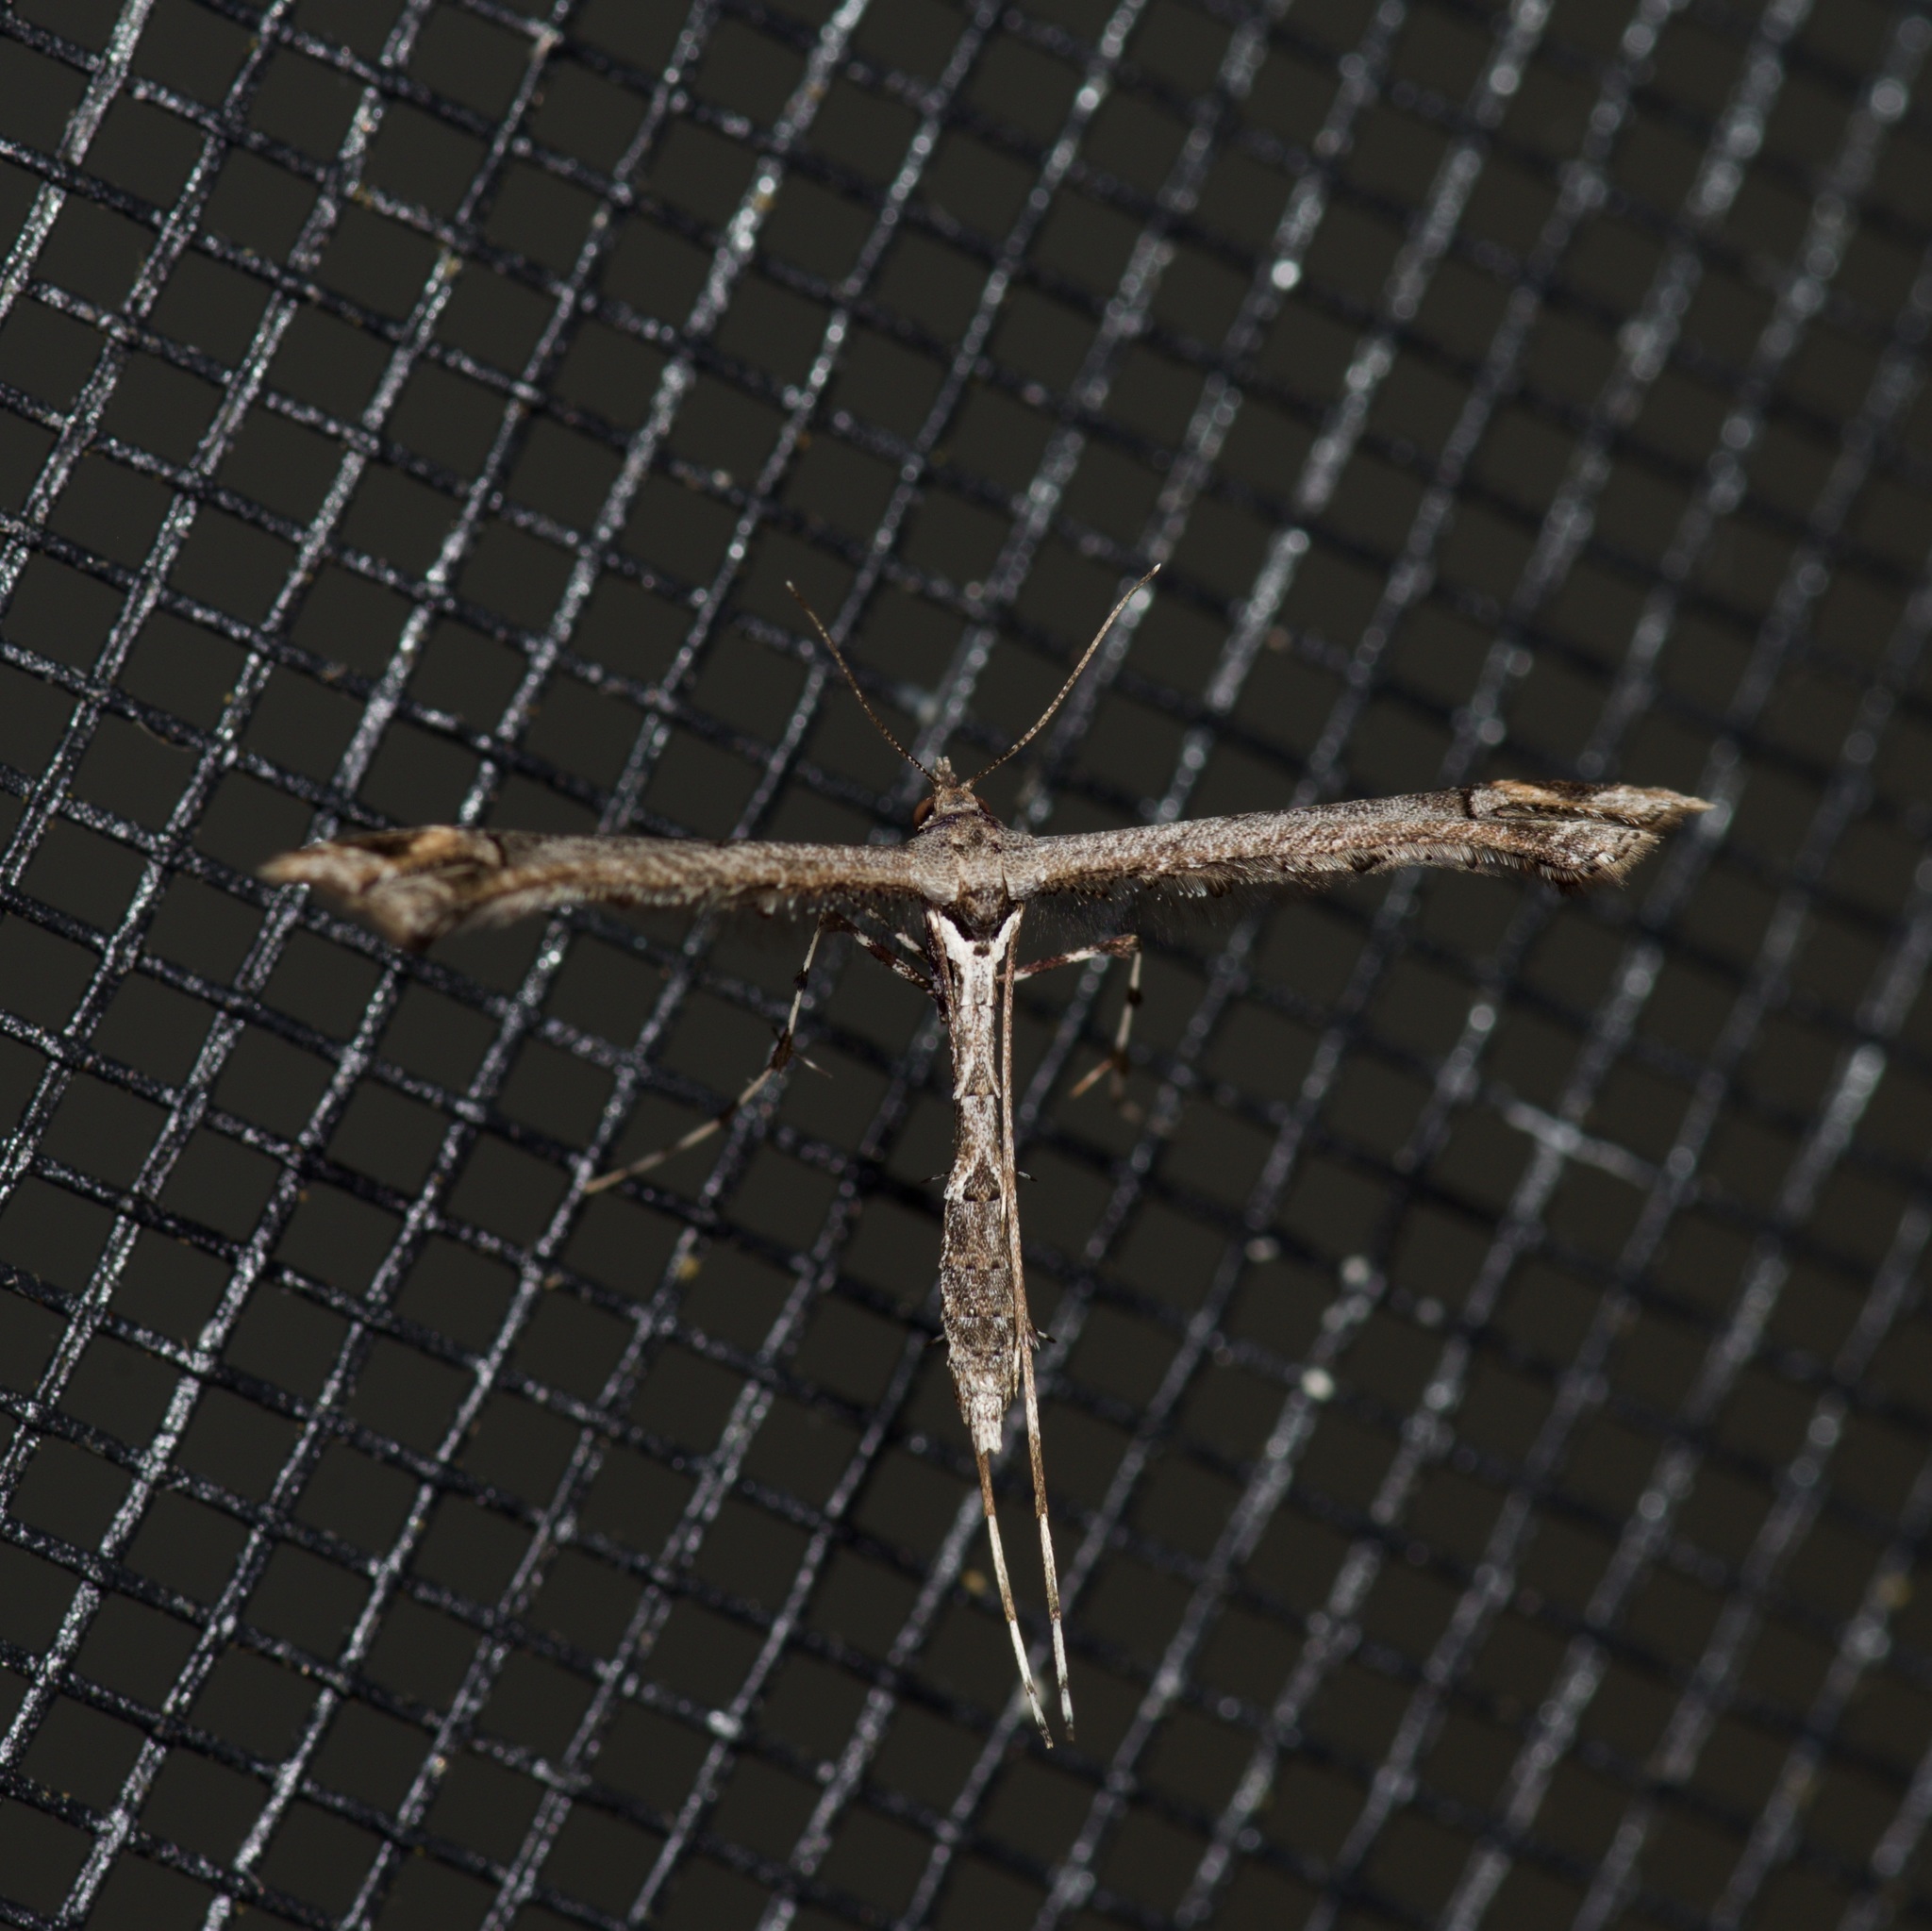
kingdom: Animalia
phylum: Arthropoda
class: Insecta
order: Lepidoptera
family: Pterophoridae
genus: Anstenoptilia
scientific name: Anstenoptilia marmarodactyla
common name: Moth
